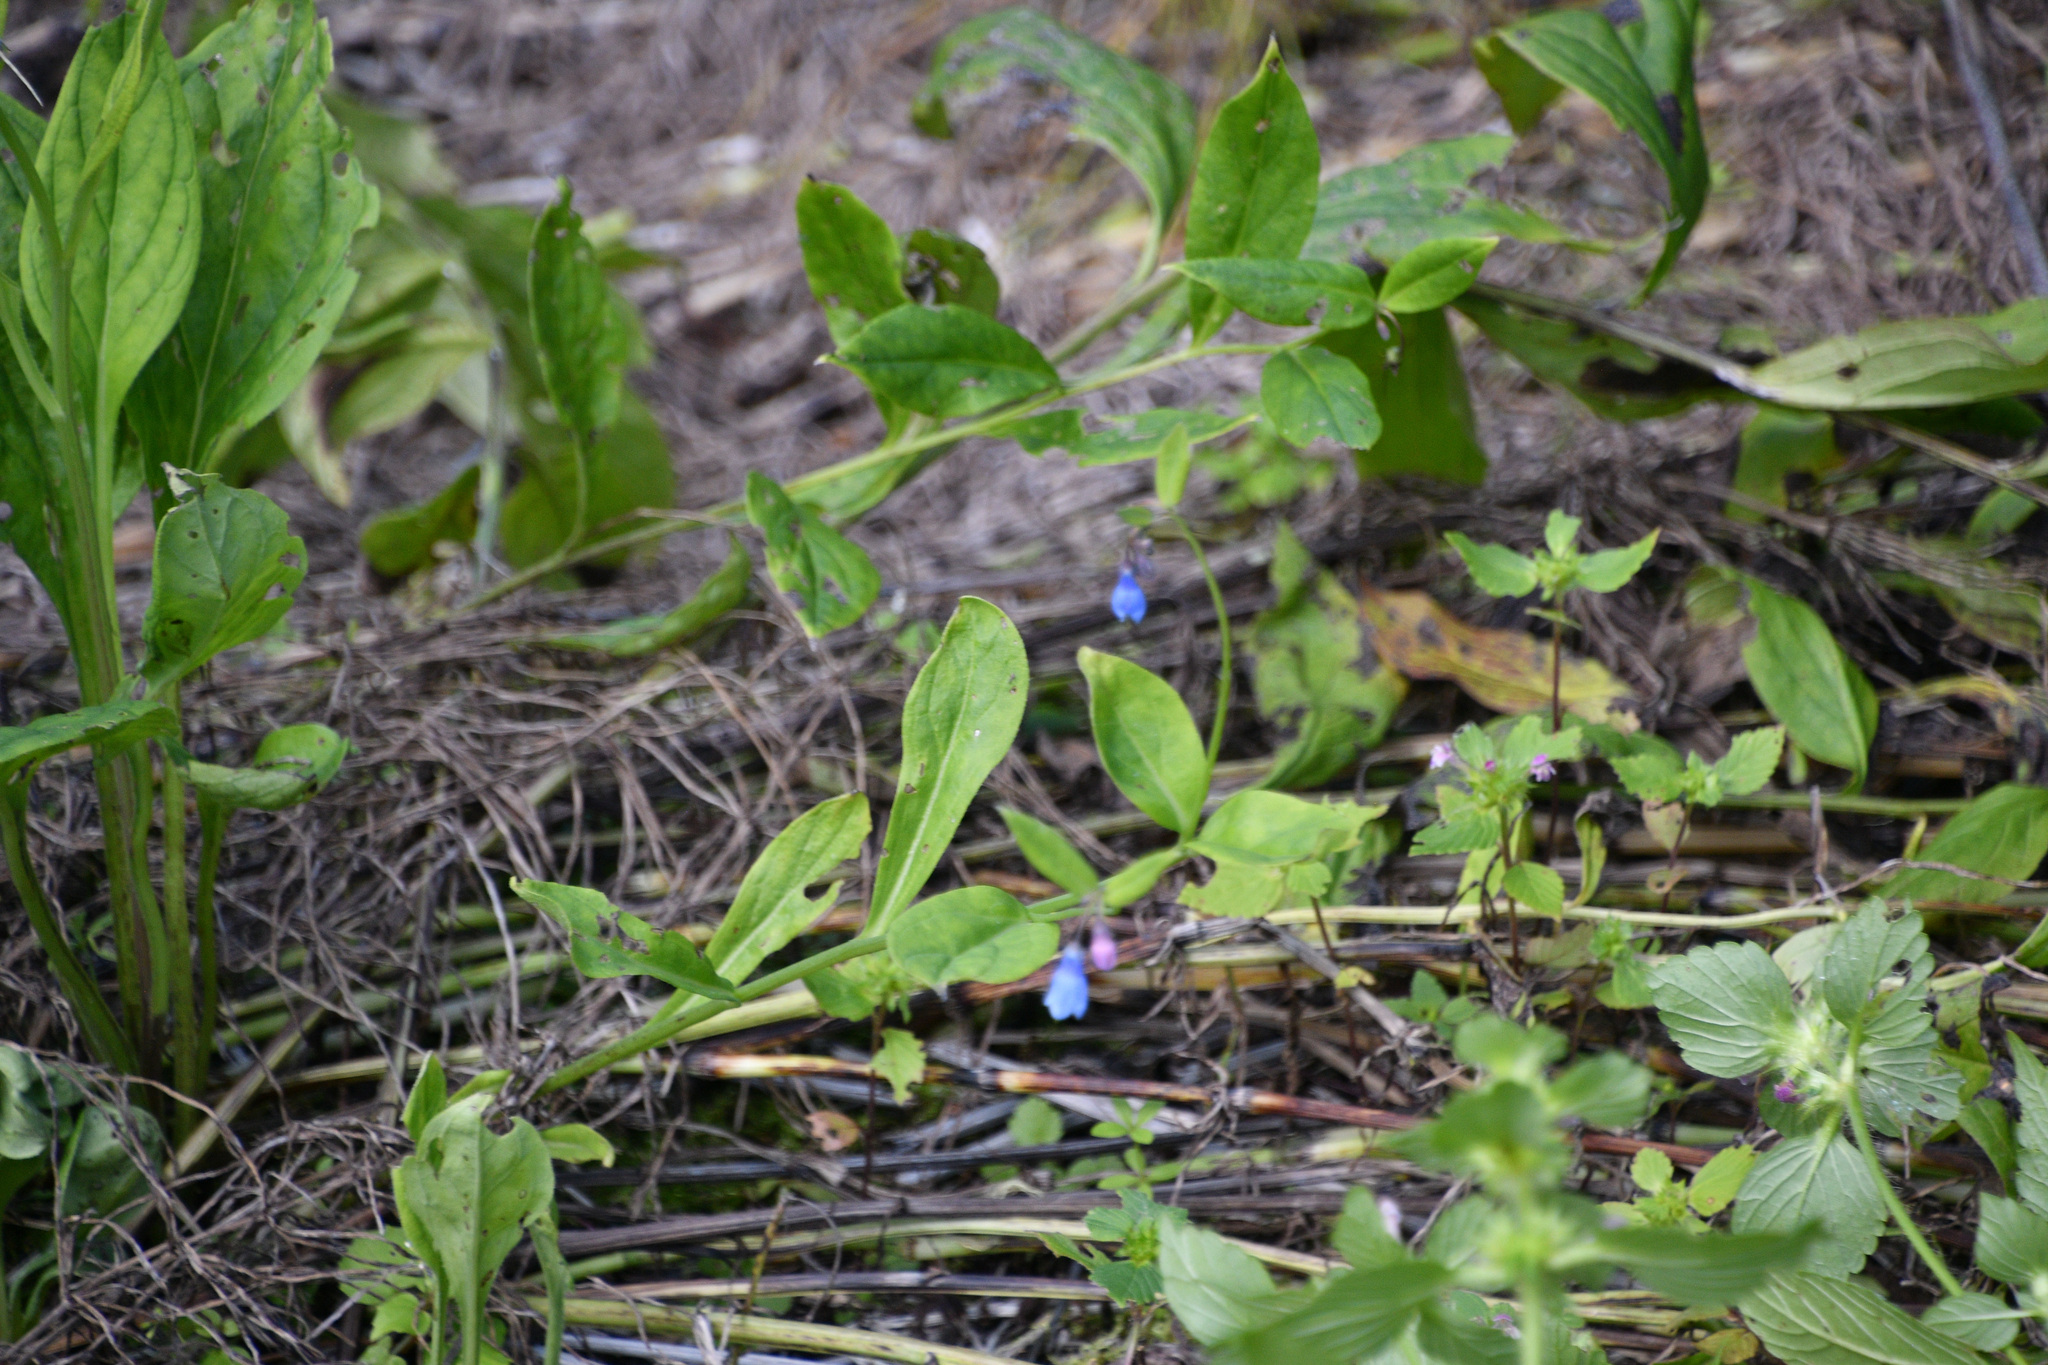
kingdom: Plantae
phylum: Tracheophyta
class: Magnoliopsida
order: Boraginales
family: Boraginaceae
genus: Mertensia
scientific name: Mertensia paniculata
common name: Panicled bluebells
